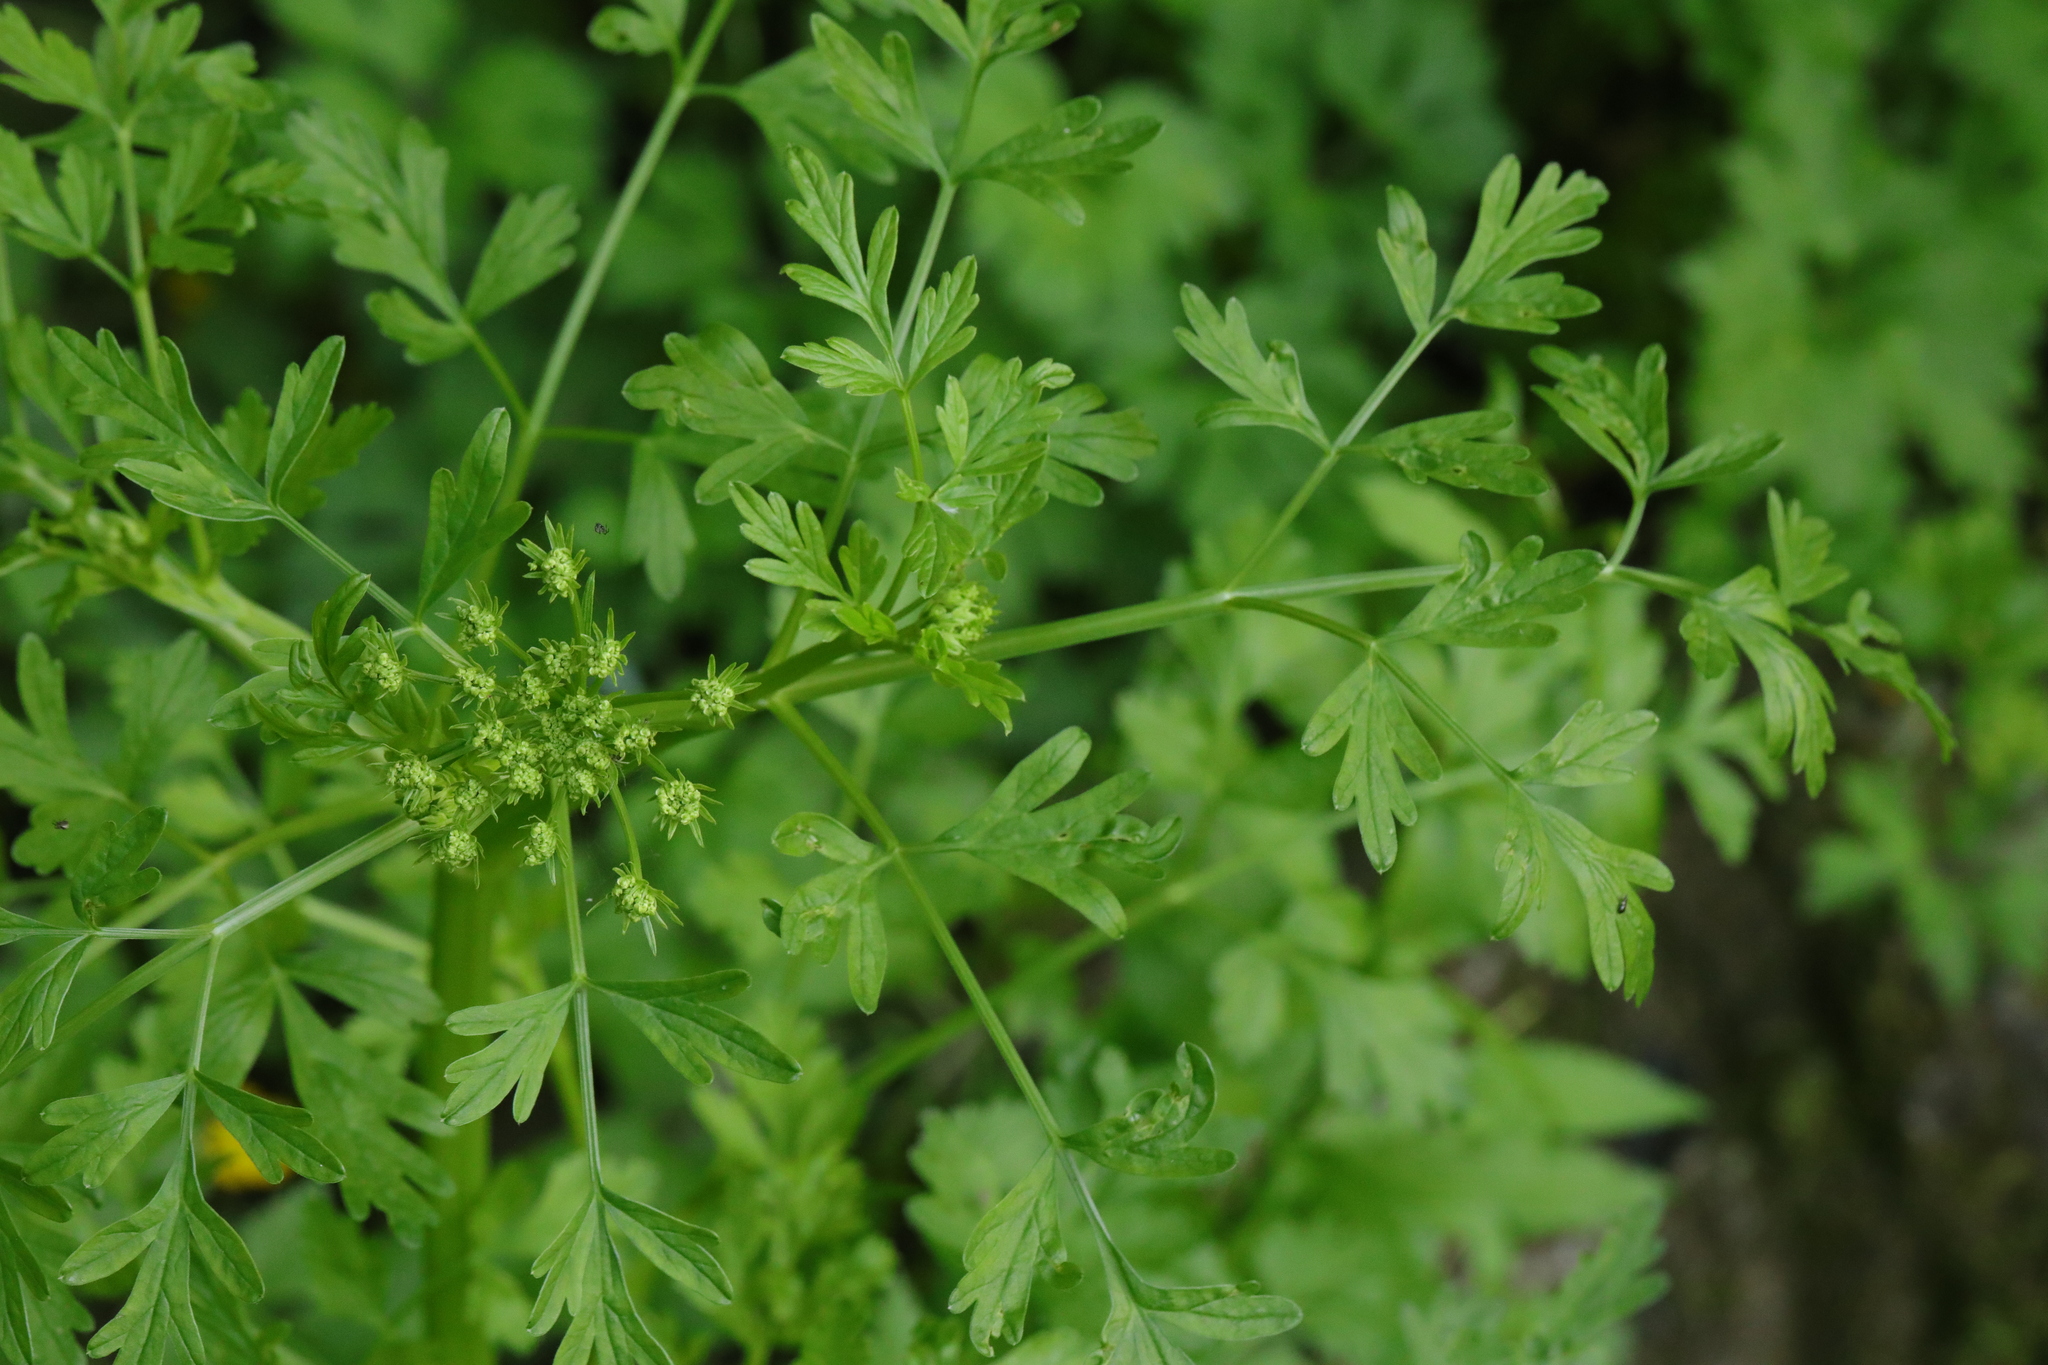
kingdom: Plantae
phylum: Tracheophyta
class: Magnoliopsida
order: Apiales
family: Apiaceae
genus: Oenanthe
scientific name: Oenanthe crocata
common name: Hemlock water-dropwort
